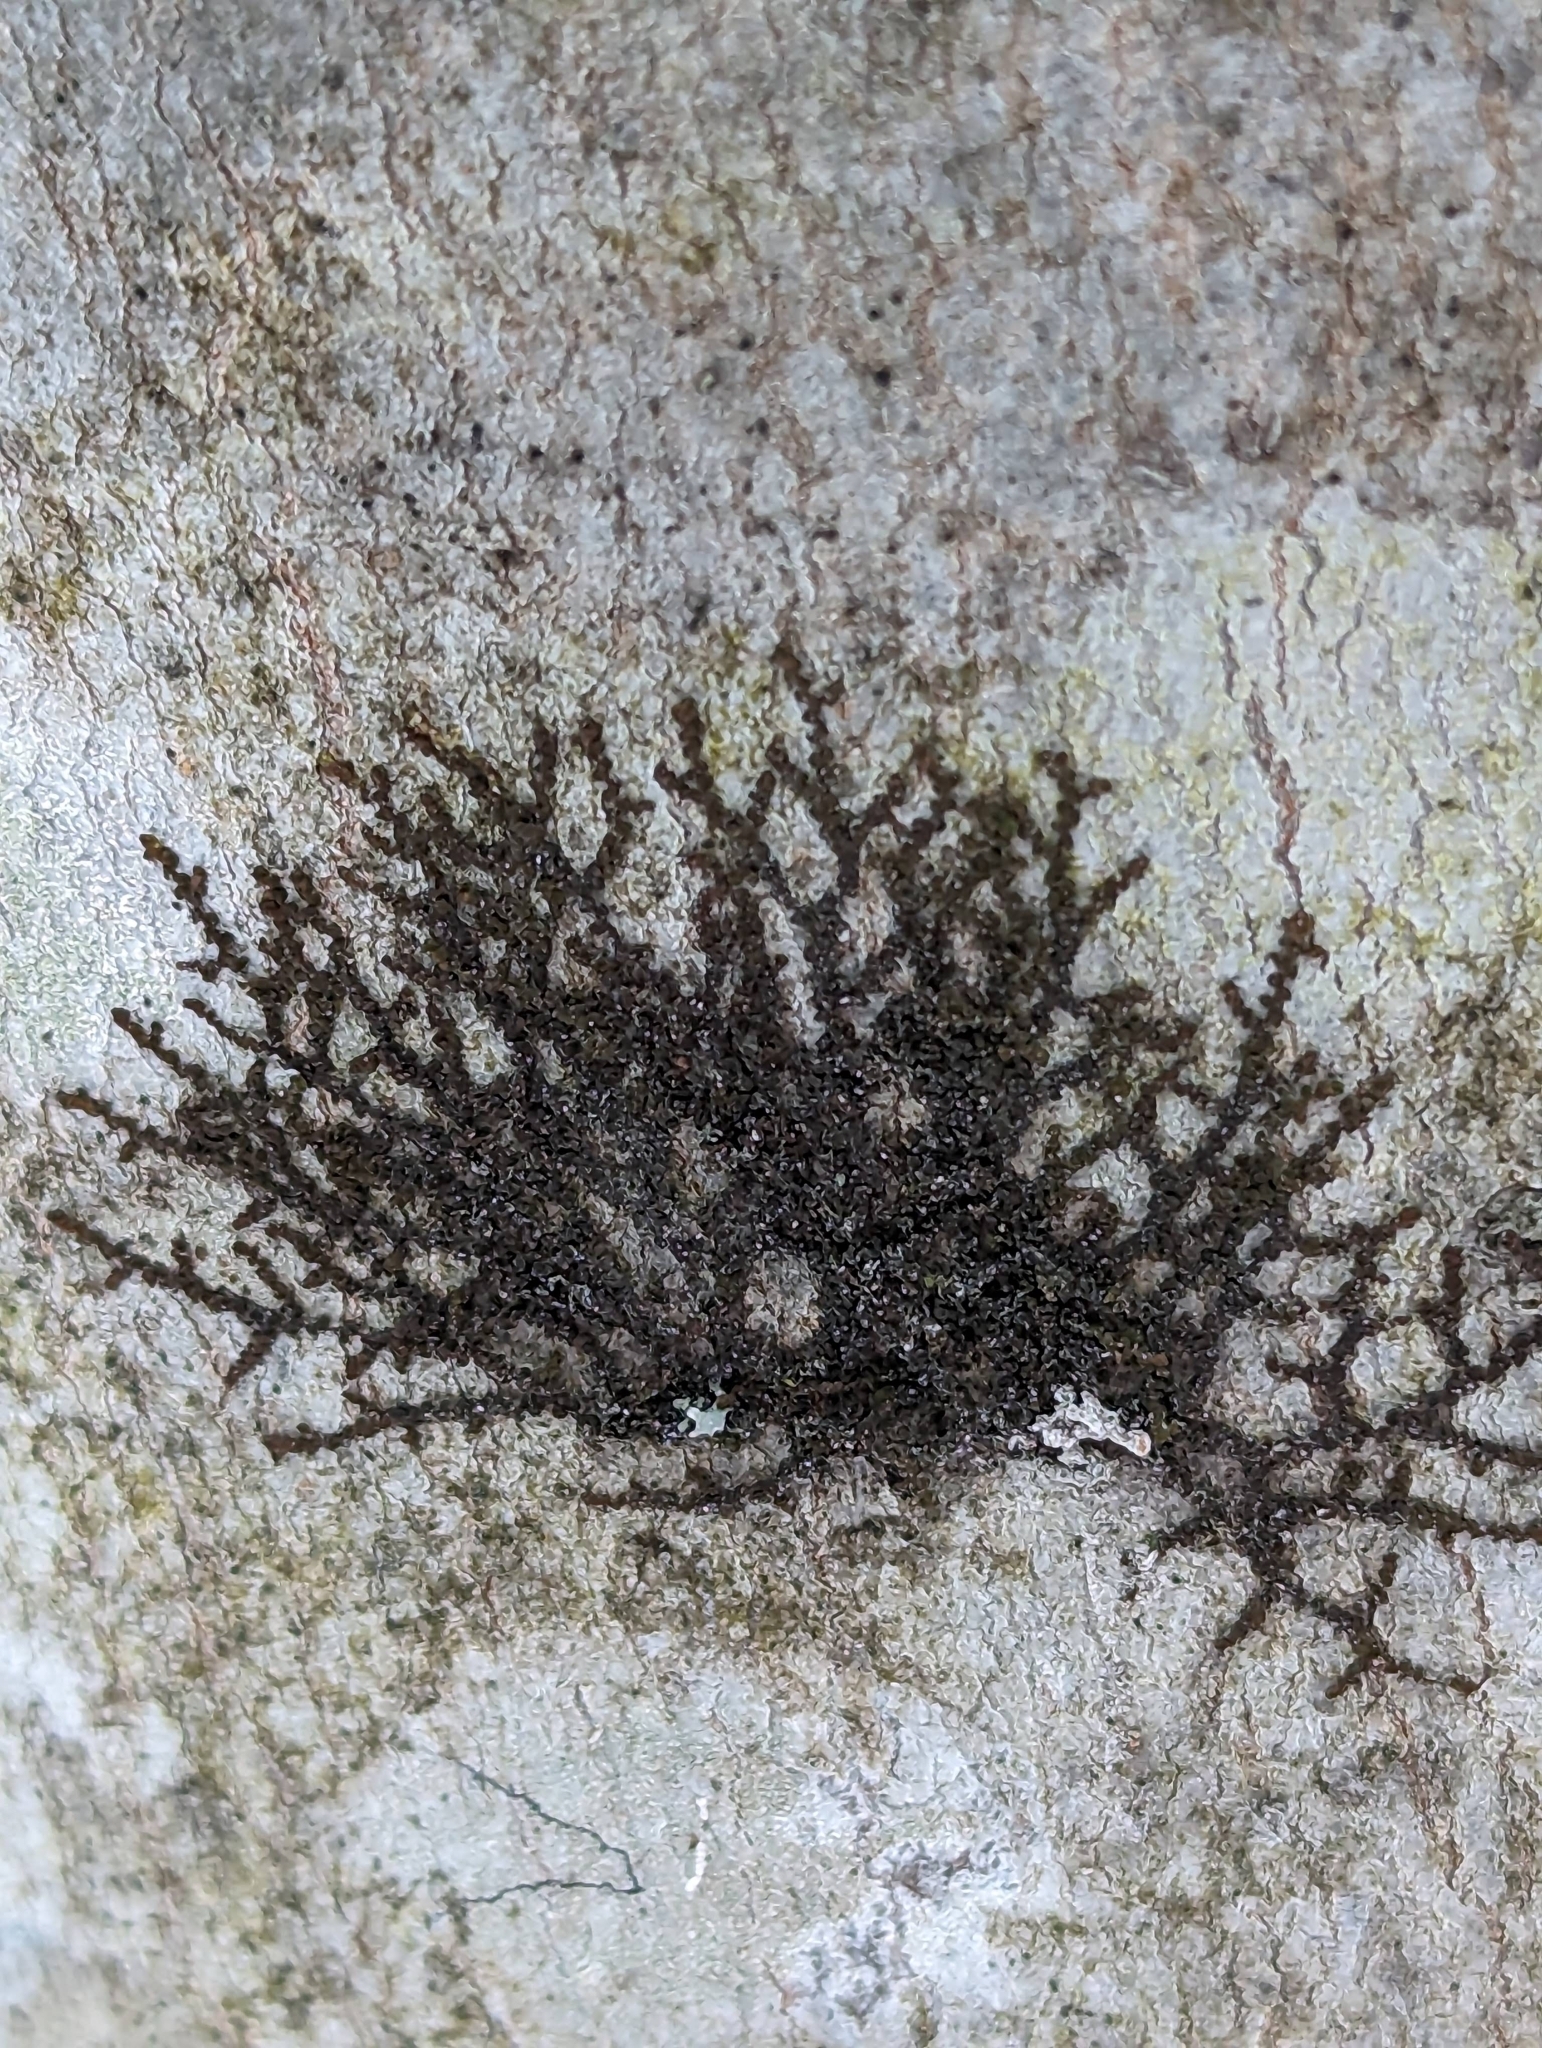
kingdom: Plantae
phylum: Marchantiophyta
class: Jungermanniopsida
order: Porellales
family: Frullaniaceae
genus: Frullania
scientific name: Frullania eboracensis
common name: New york scalewort
